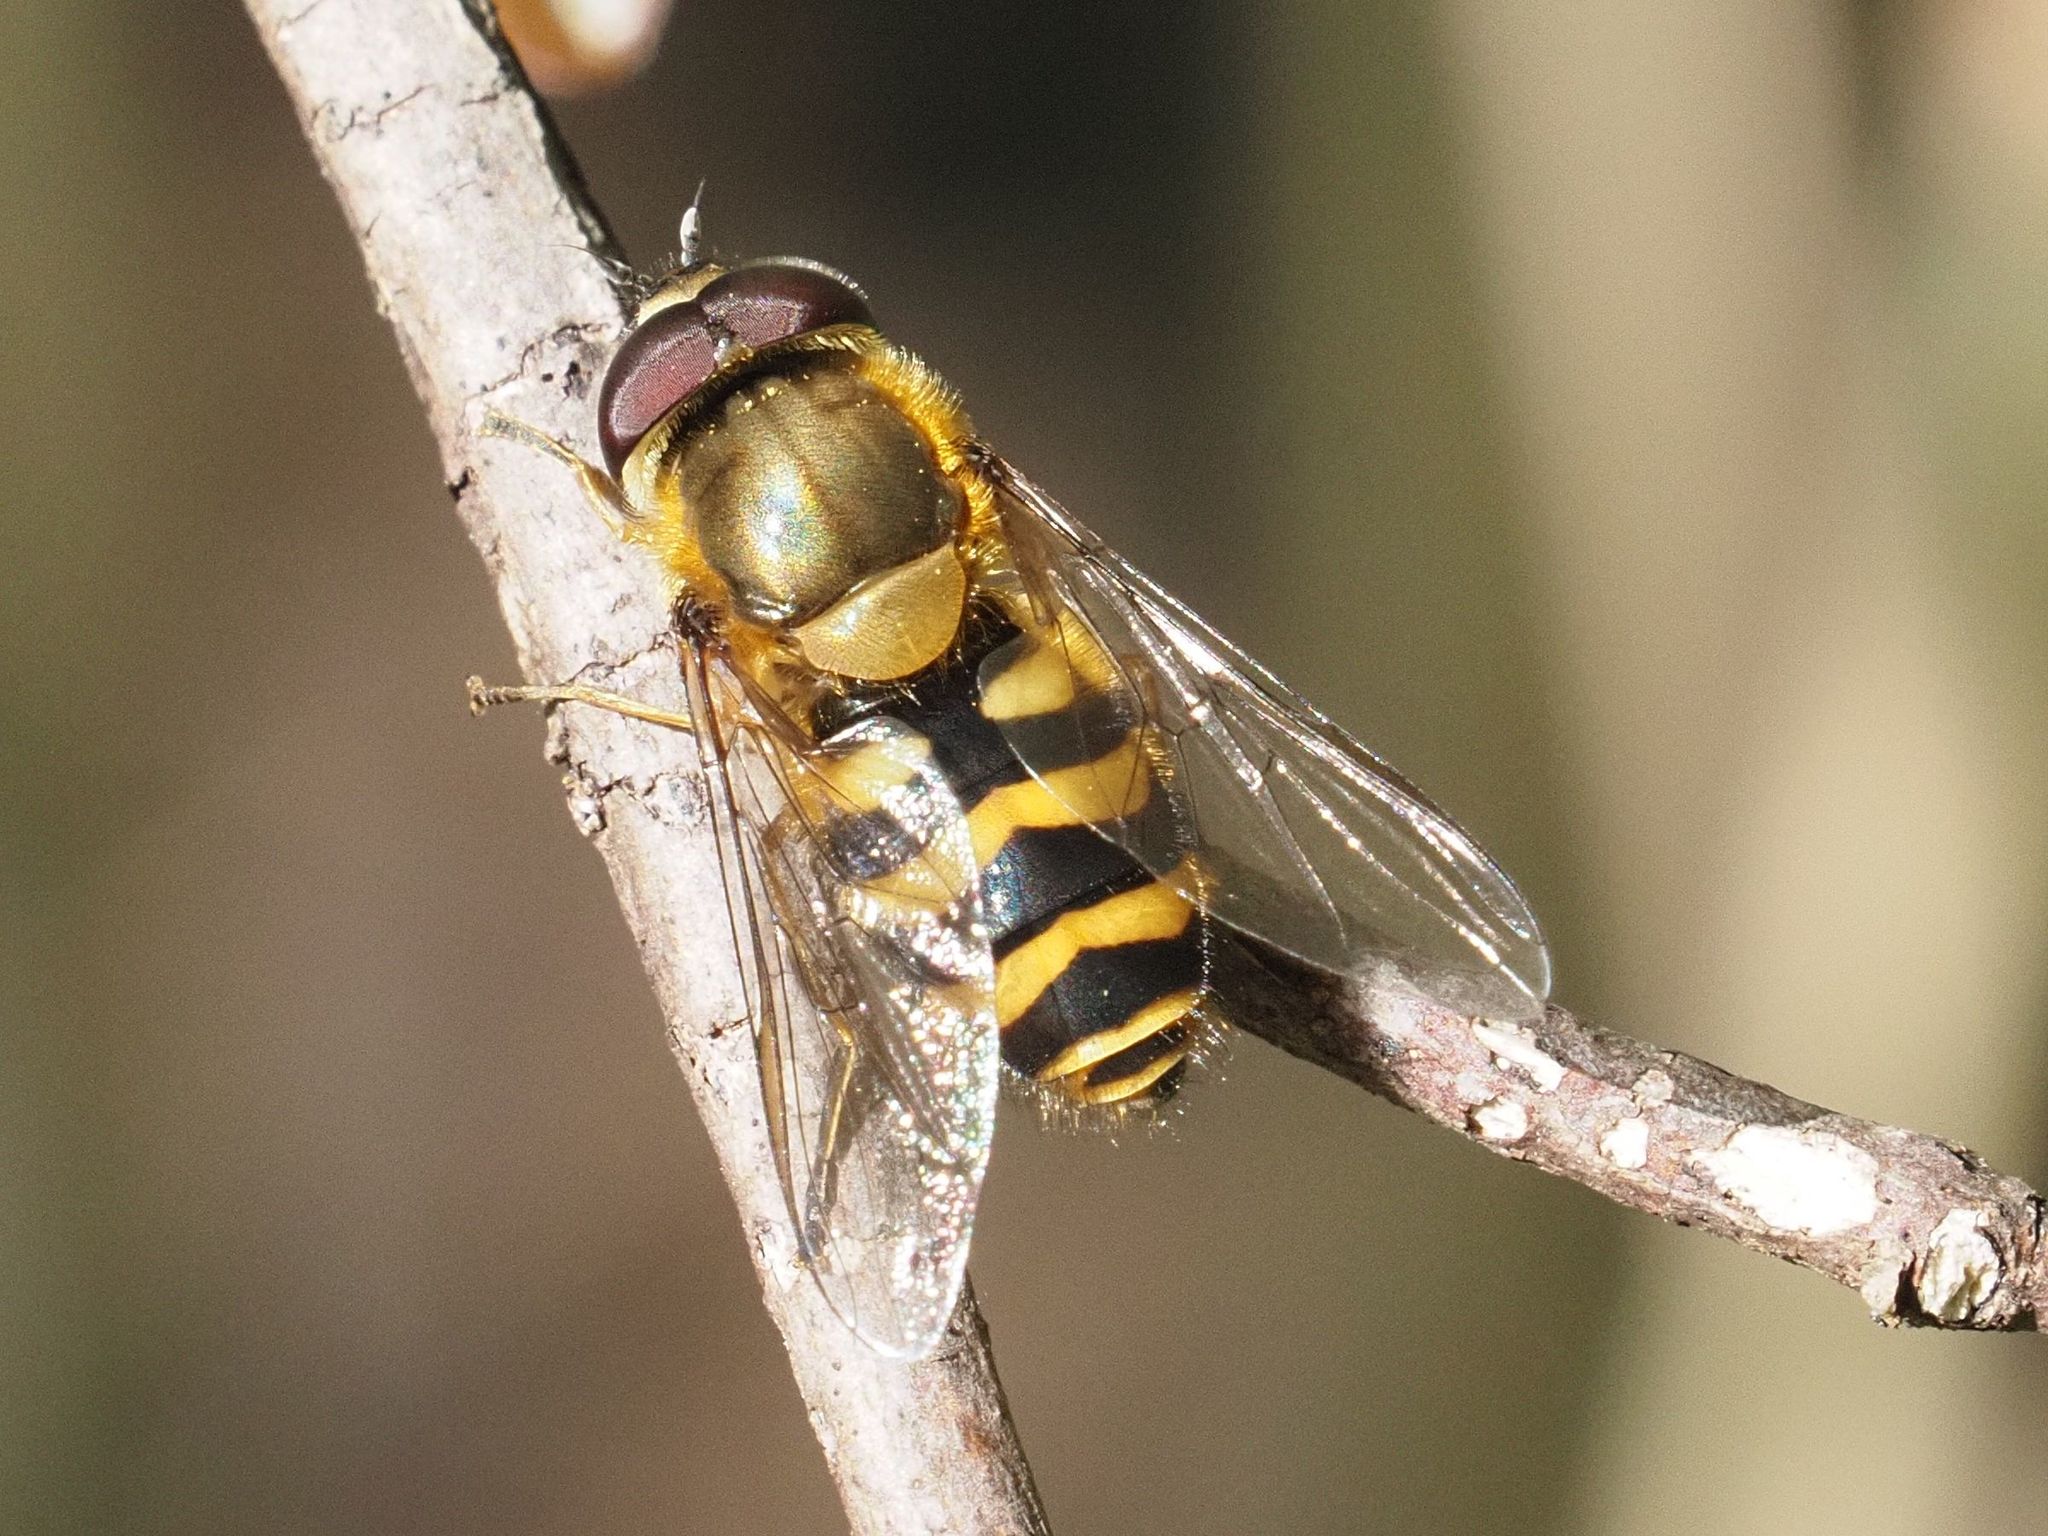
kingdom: Animalia
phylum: Arthropoda
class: Insecta
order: Diptera
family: Syrphidae
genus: Syrphus
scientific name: Syrphus torvus
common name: Hairy-eyed flower fly
